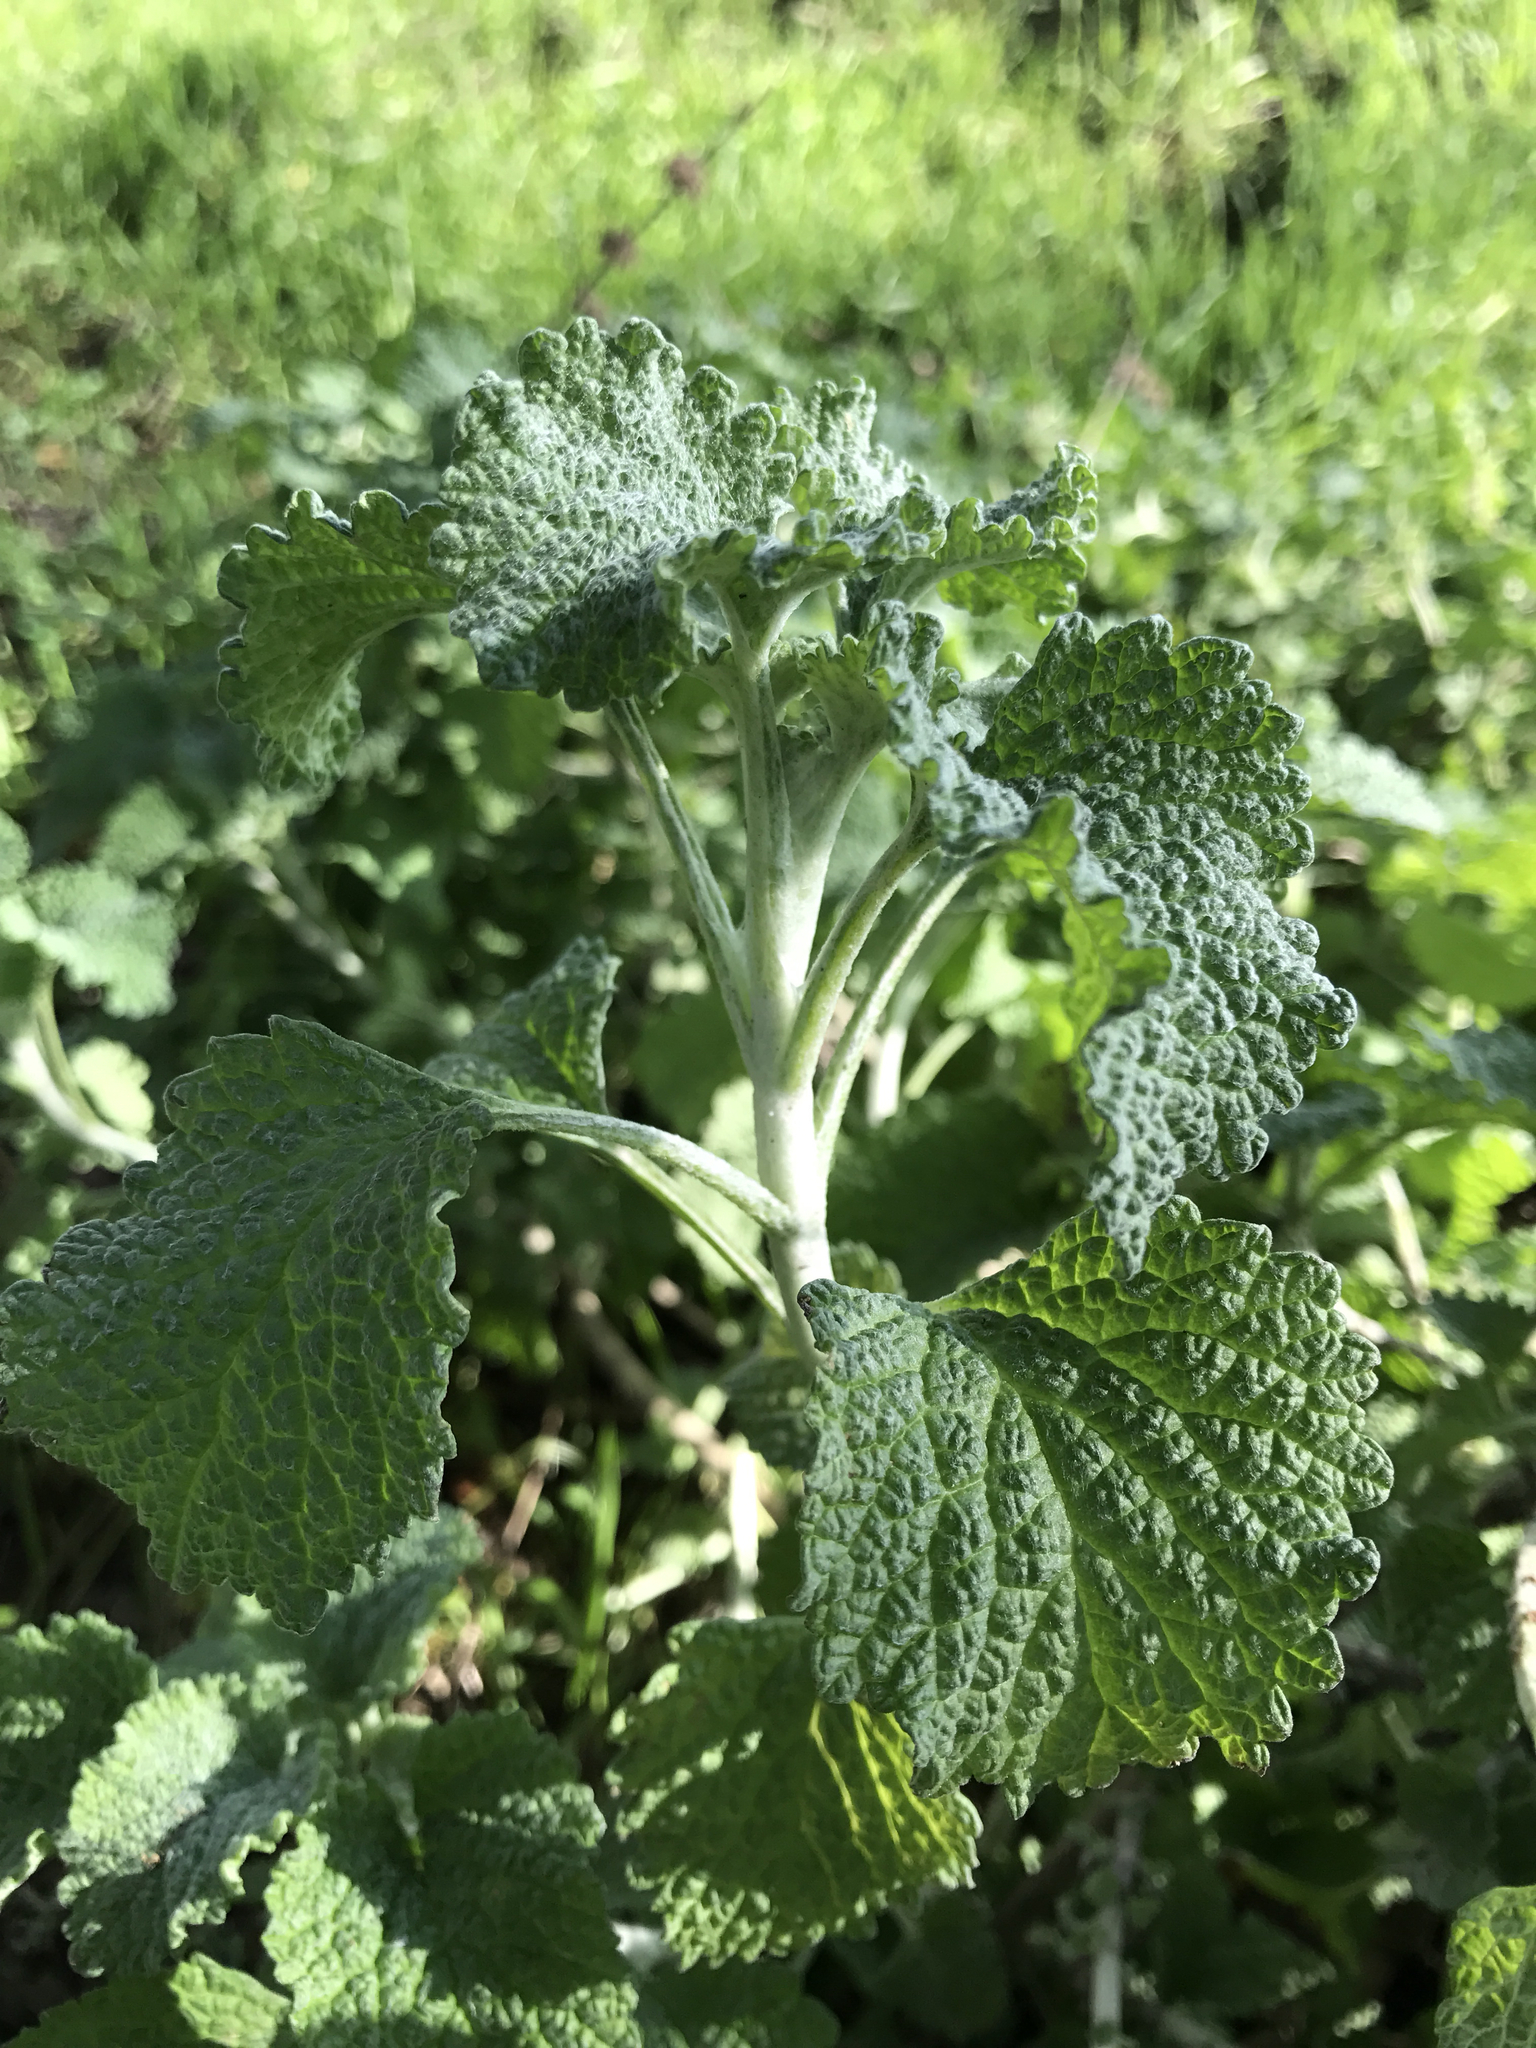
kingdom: Plantae
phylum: Tracheophyta
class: Magnoliopsida
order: Lamiales
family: Lamiaceae
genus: Marrubium
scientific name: Marrubium vulgare
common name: Horehound
